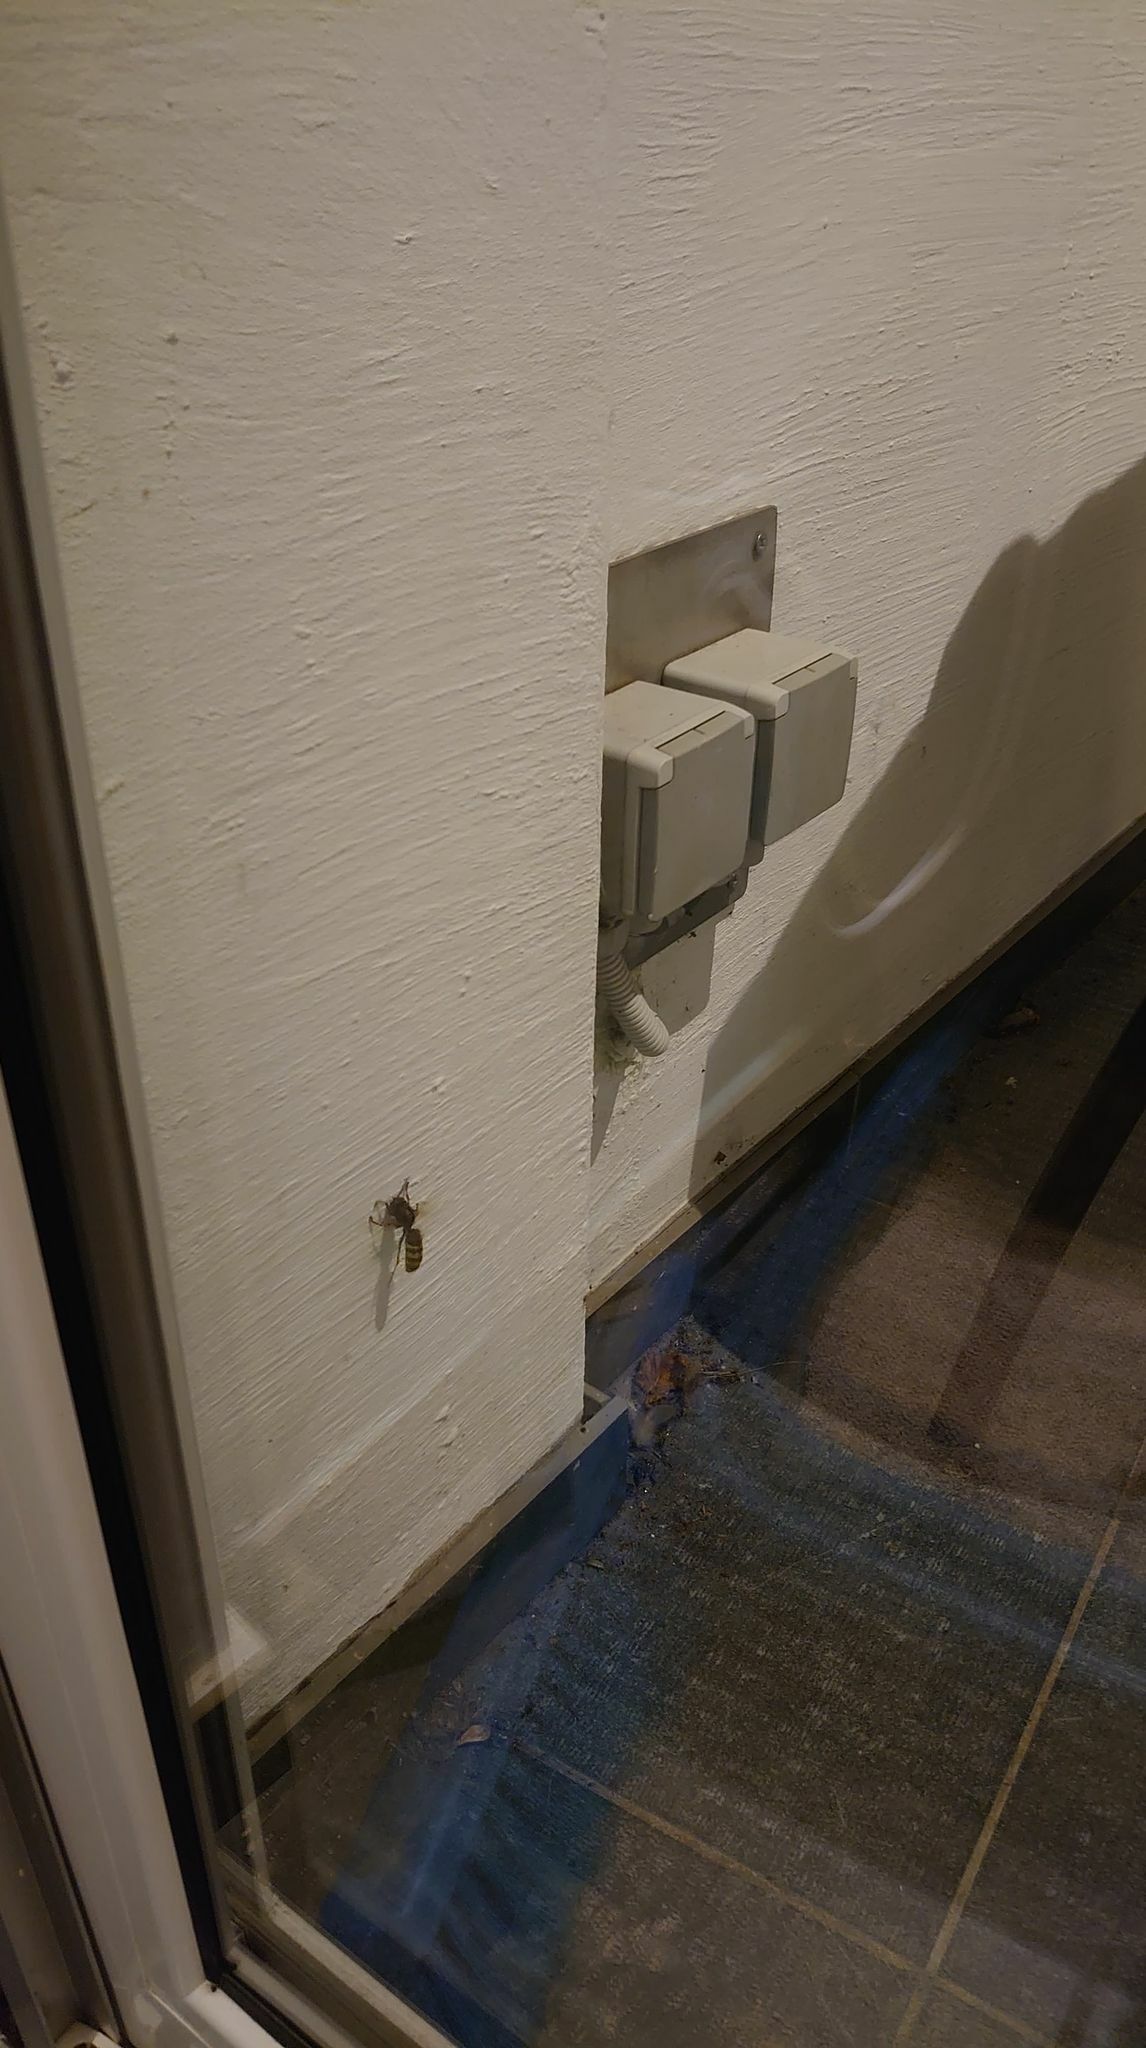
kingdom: Animalia
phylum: Arthropoda
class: Insecta
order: Hymenoptera
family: Vespidae
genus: Vespa
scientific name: Vespa crabro
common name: Hornet
